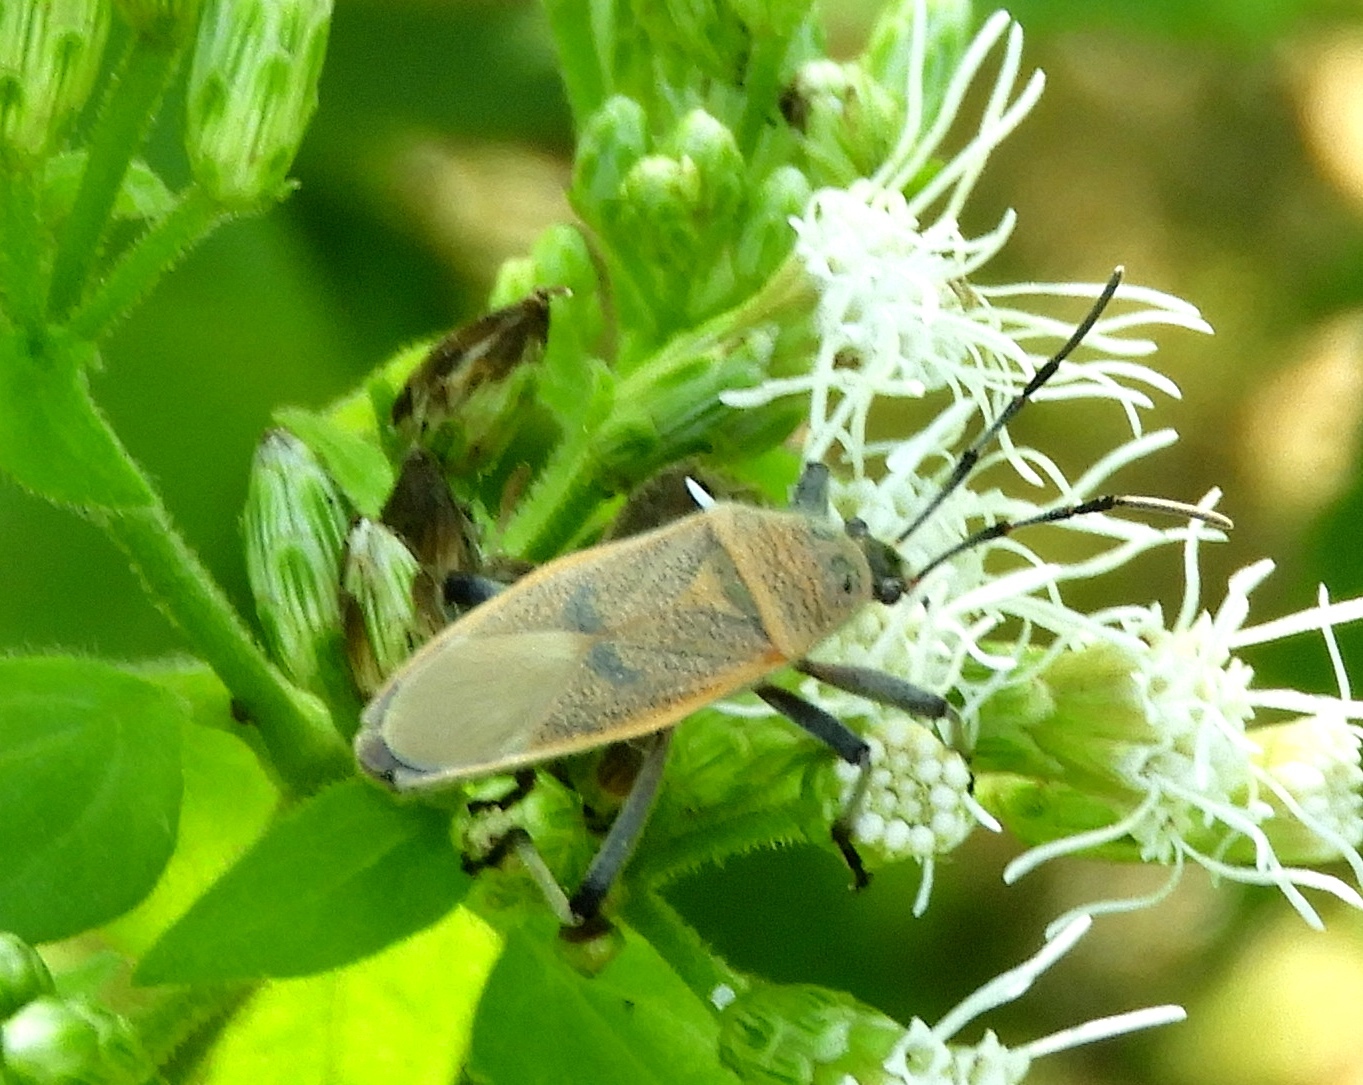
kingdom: Animalia
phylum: Arthropoda
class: Insecta
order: Hemiptera
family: Largidae
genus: Largus
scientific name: Largus
